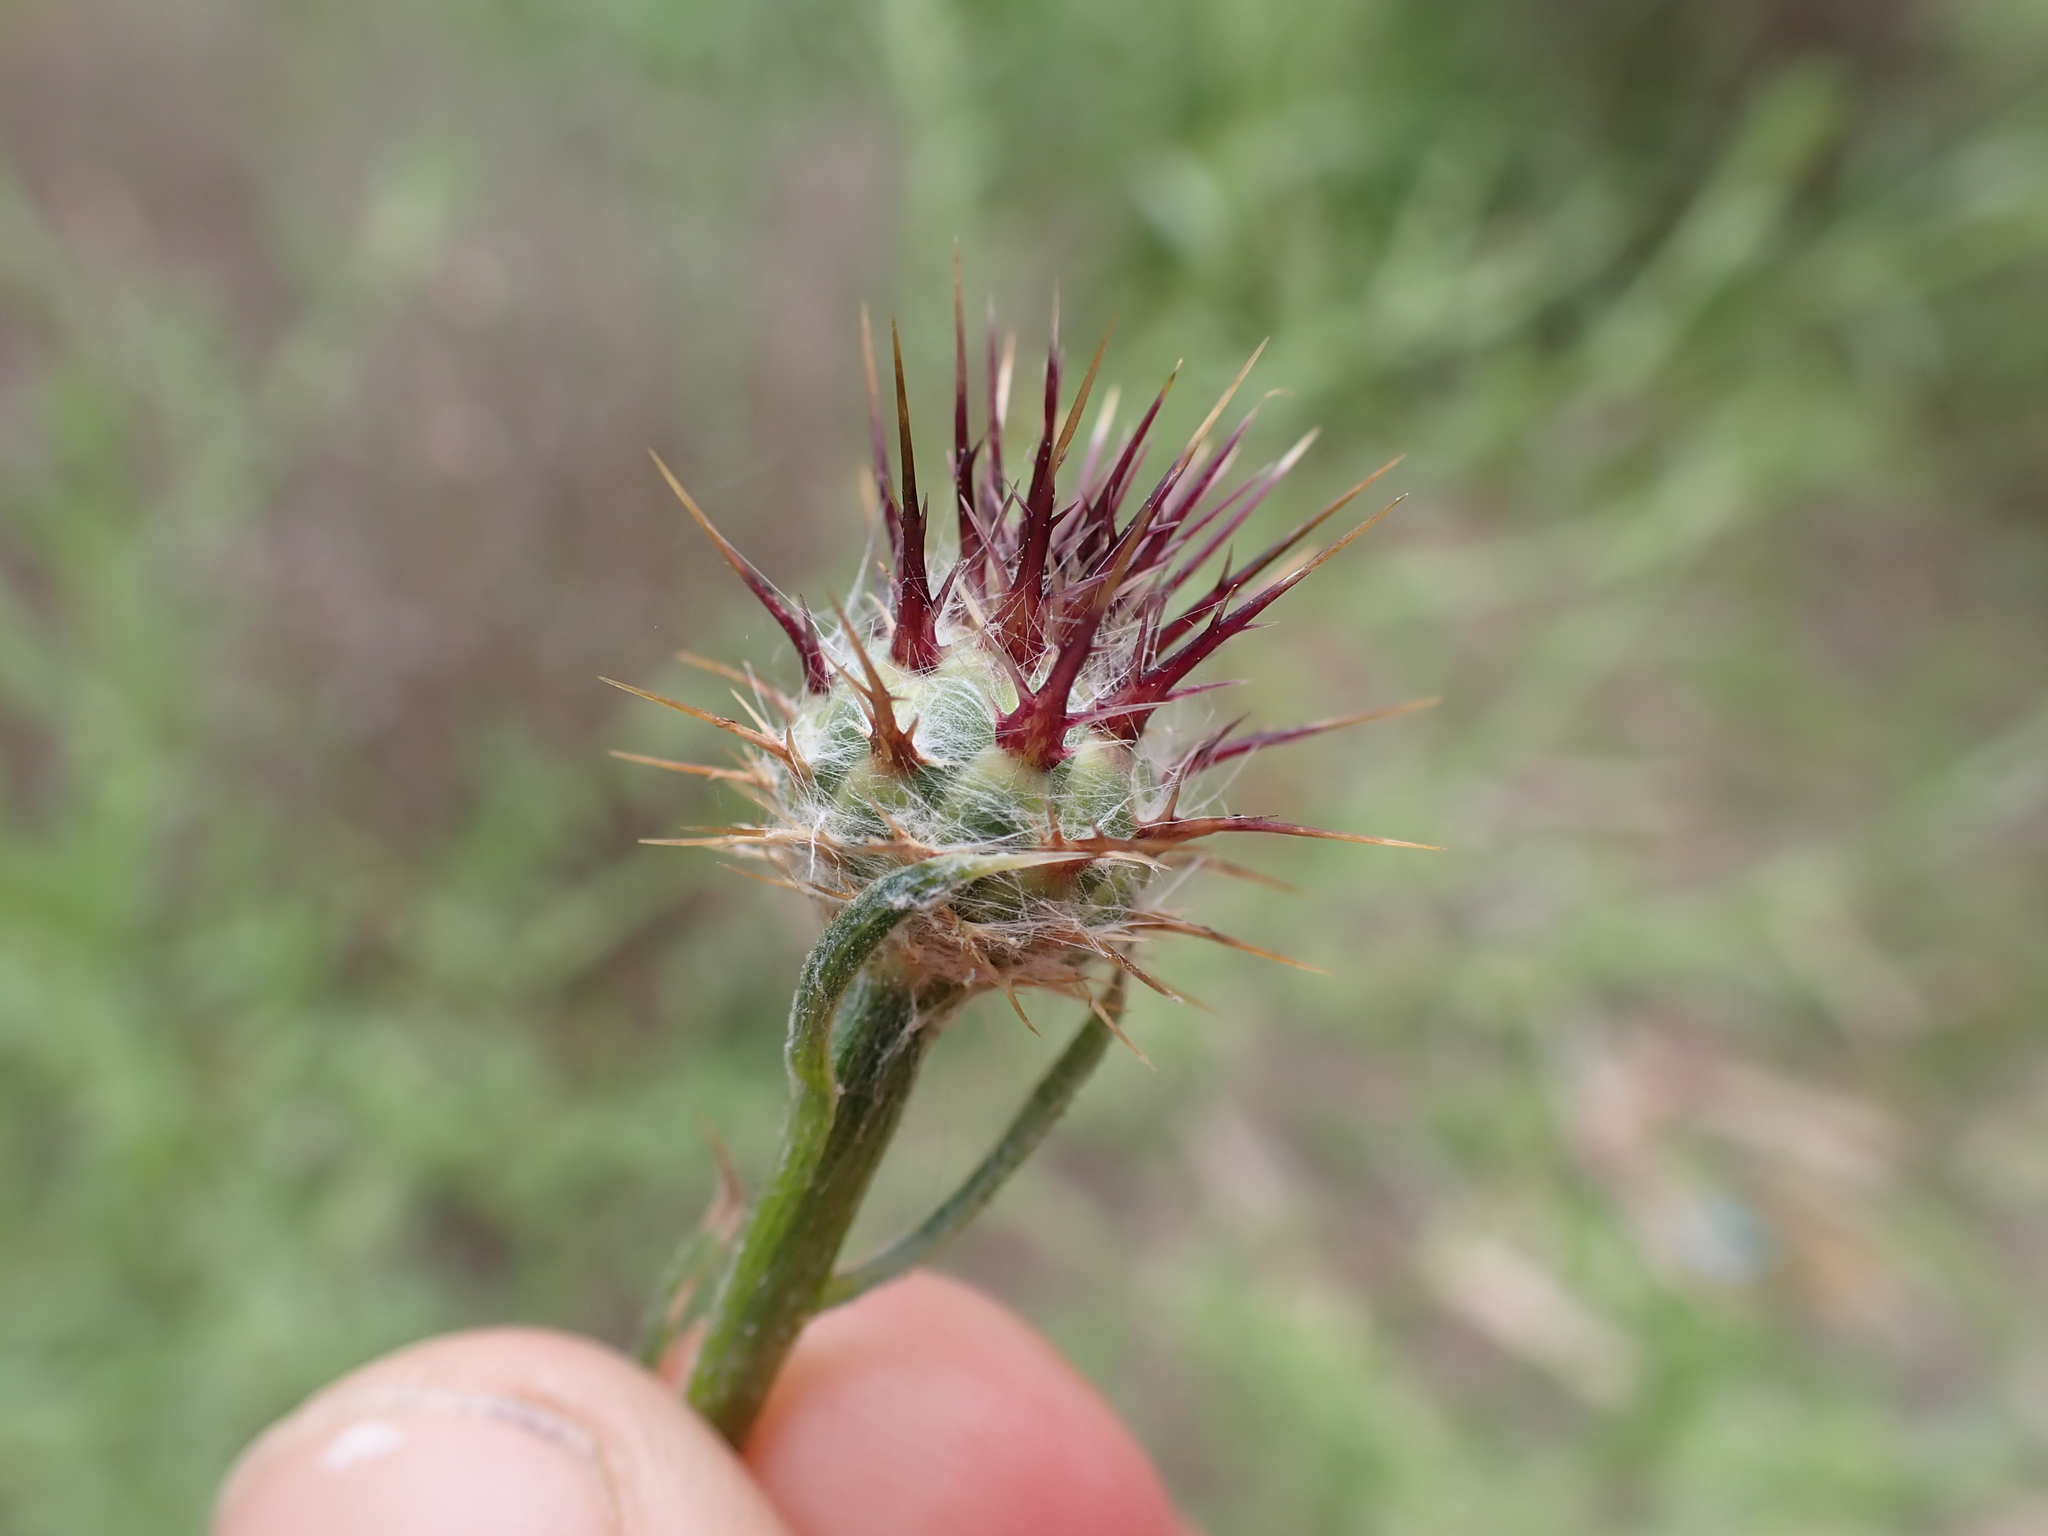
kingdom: Plantae
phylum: Tracheophyta
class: Magnoliopsida
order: Asterales
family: Asteraceae
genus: Centaurea
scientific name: Centaurea melitensis
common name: Maltese star-thistle
